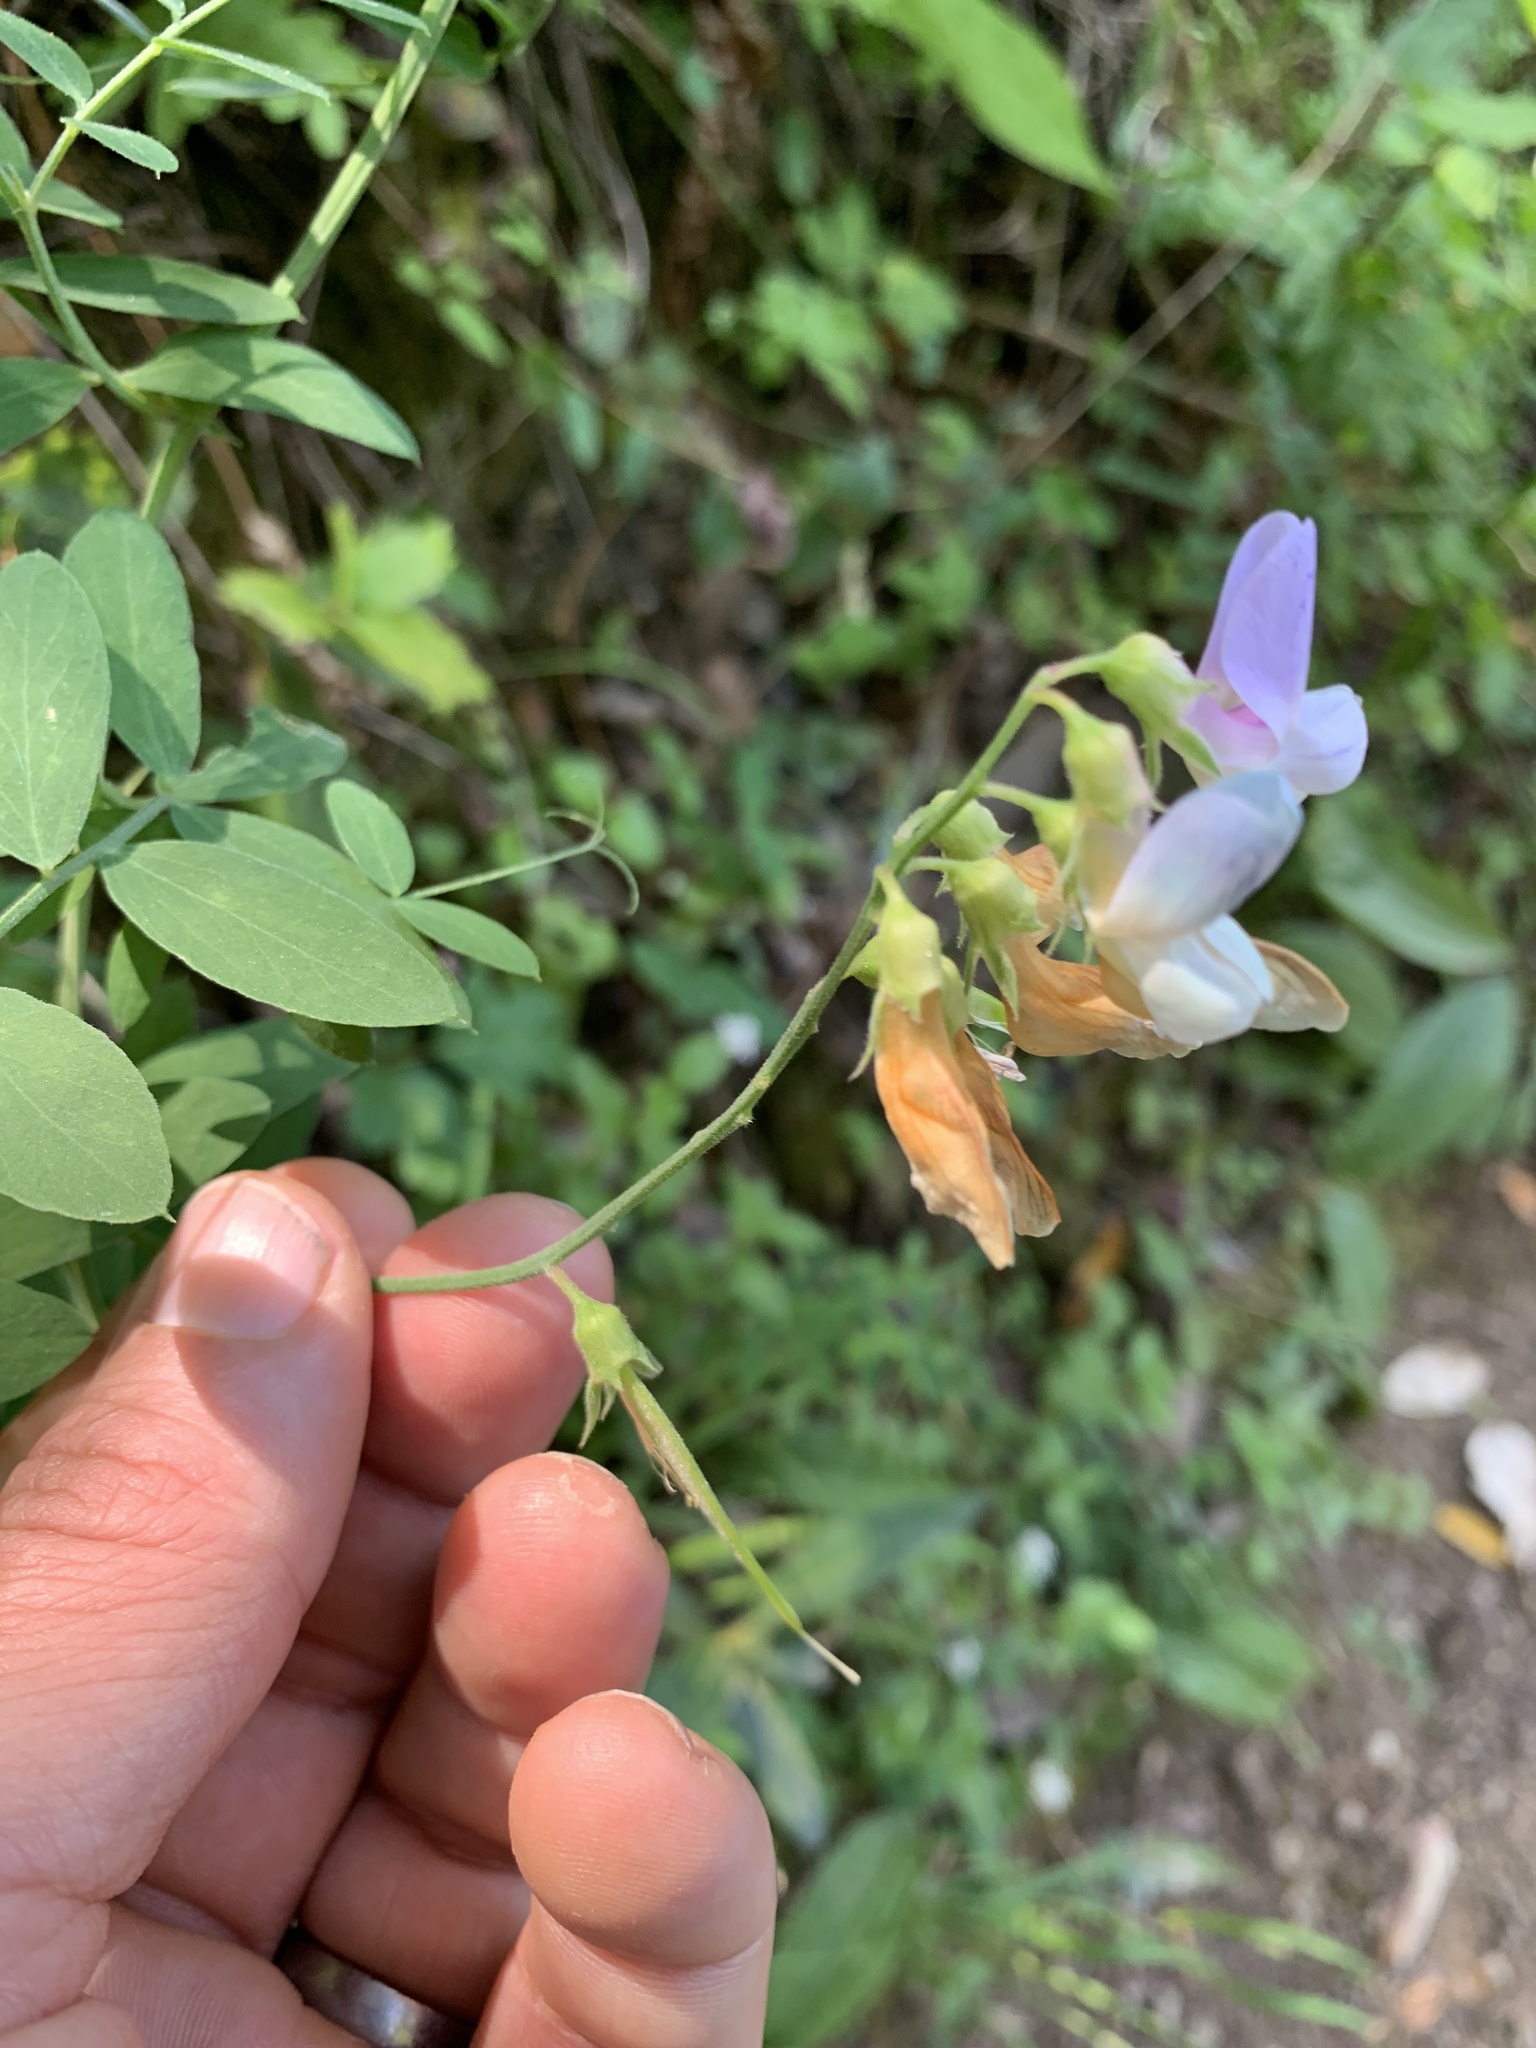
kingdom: Plantae
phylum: Tracheophyta
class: Magnoliopsida
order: Fabales
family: Fabaceae
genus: Lathyrus
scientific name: Lathyrus vestitus
